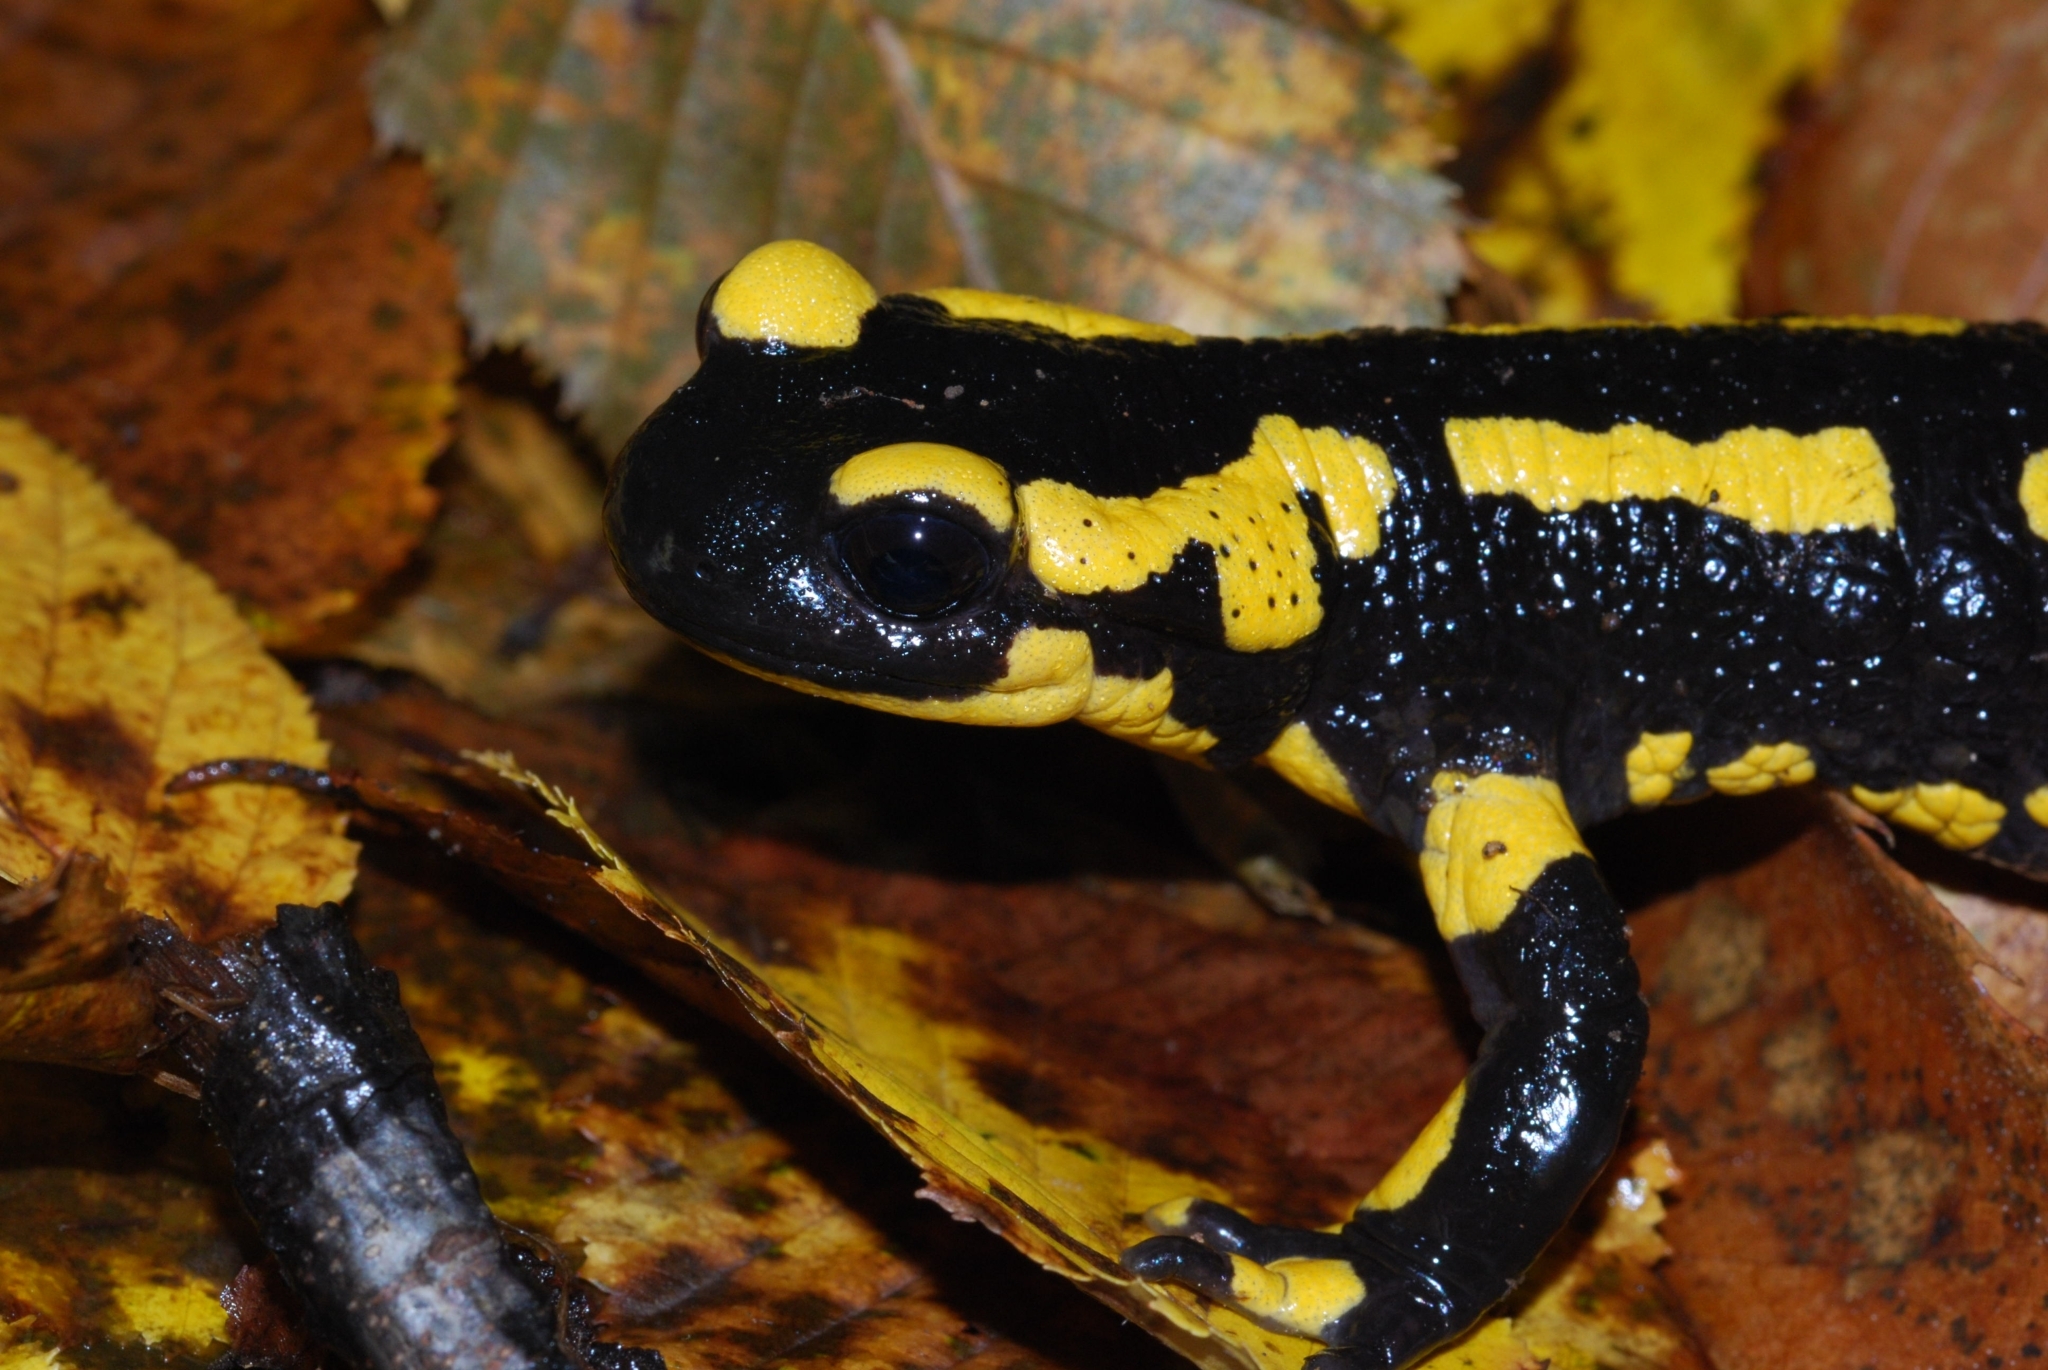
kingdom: Animalia
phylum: Chordata
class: Amphibia
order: Caudata
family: Salamandridae
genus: Salamandra
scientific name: Salamandra salamandra
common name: Fire salamander
